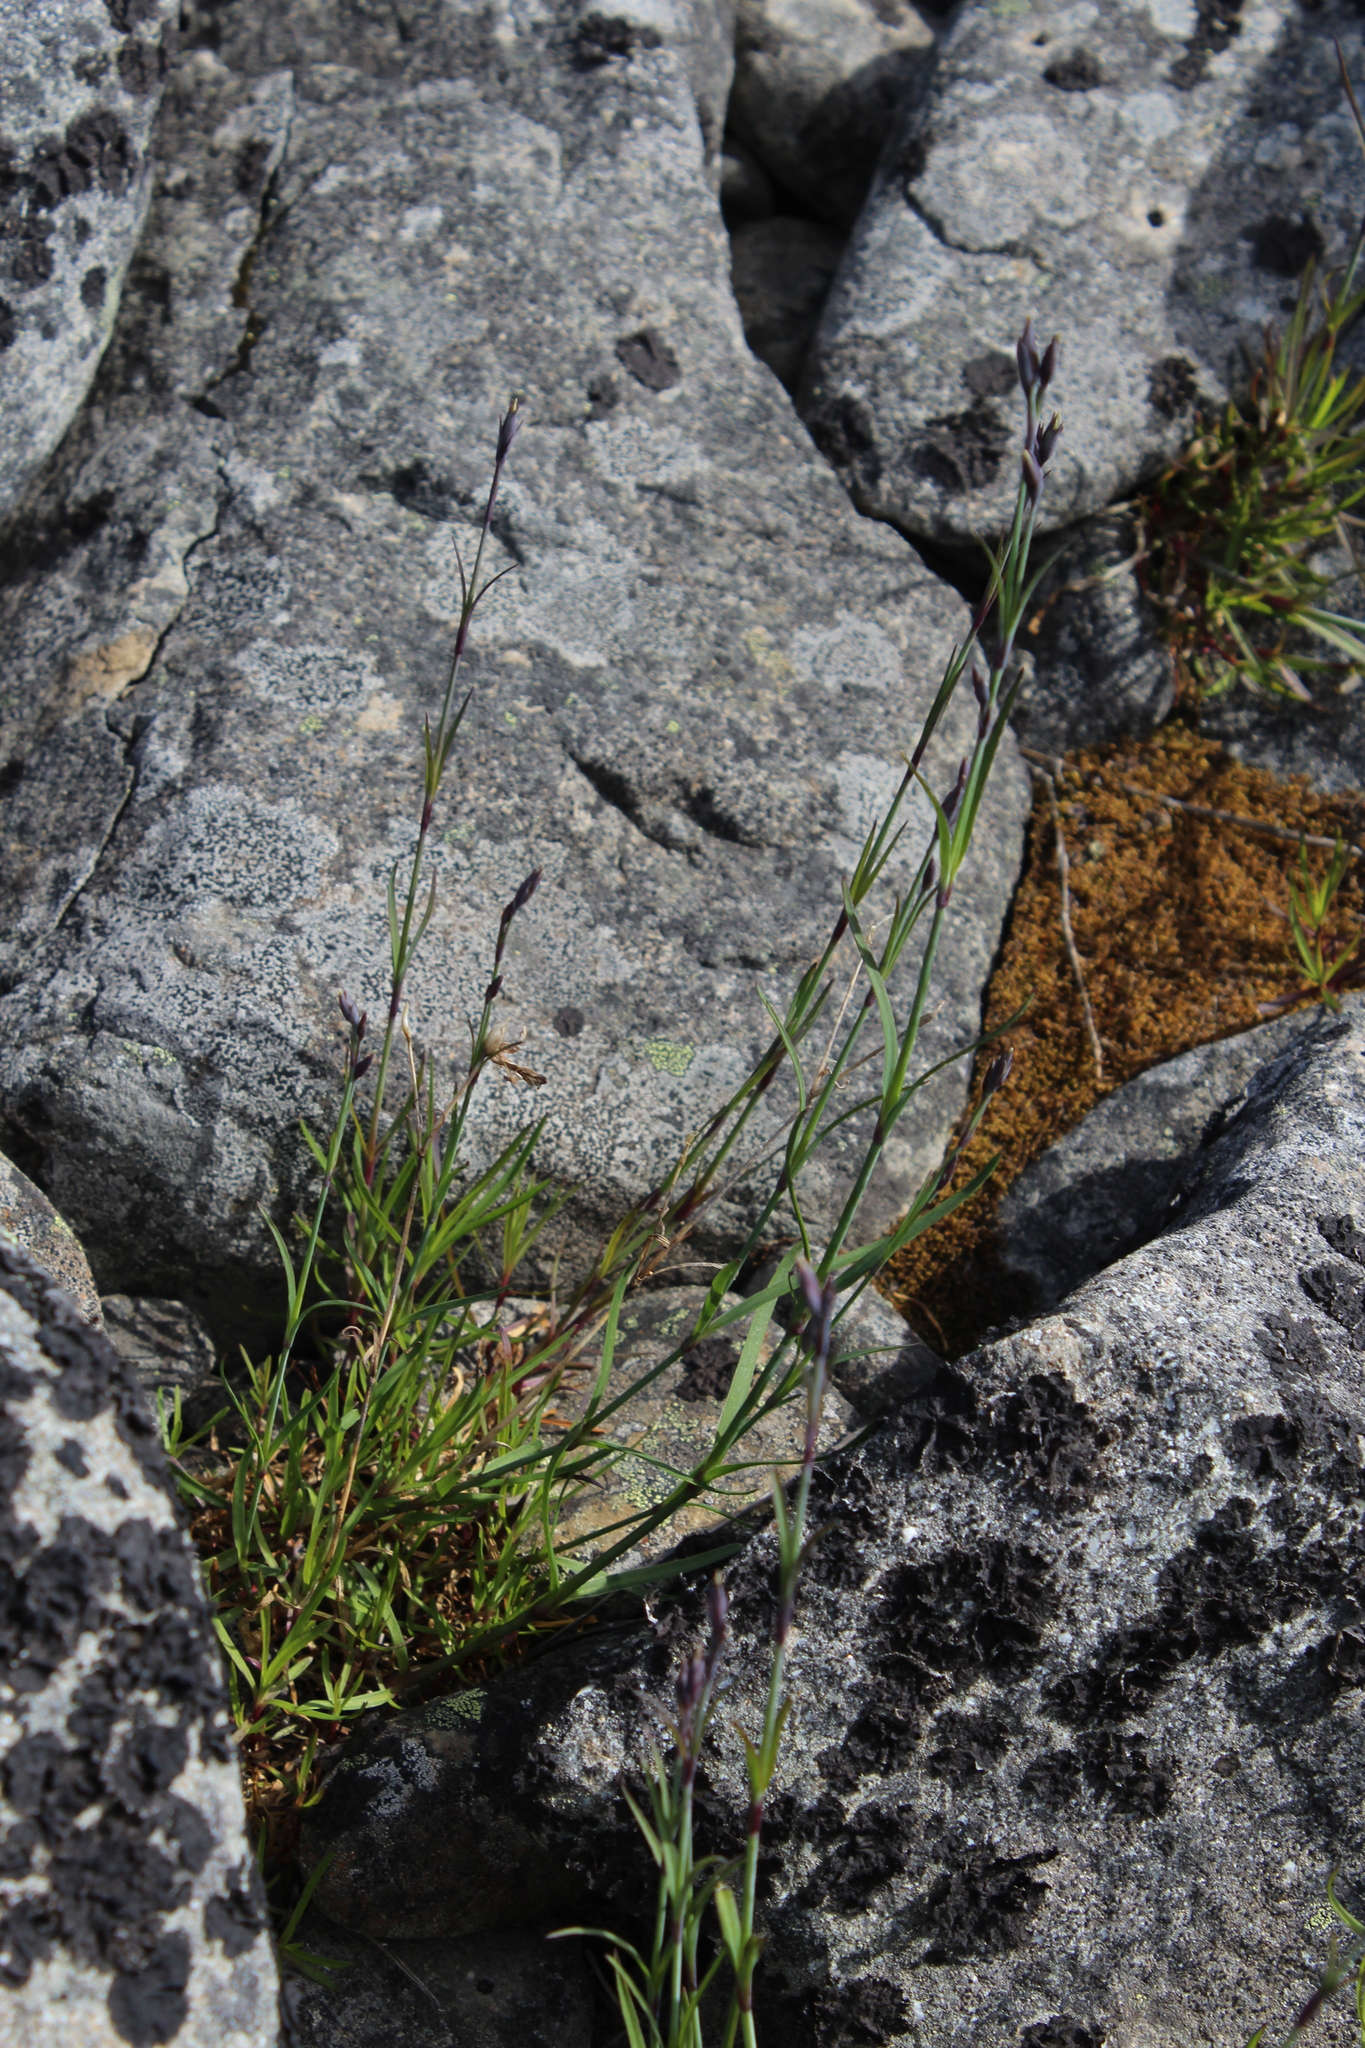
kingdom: Plantae
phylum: Tracheophyta
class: Magnoliopsida
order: Caryophyllales
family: Caryophyllaceae
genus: Dianthus
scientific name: Dianthus superbus
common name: Fringed pink
